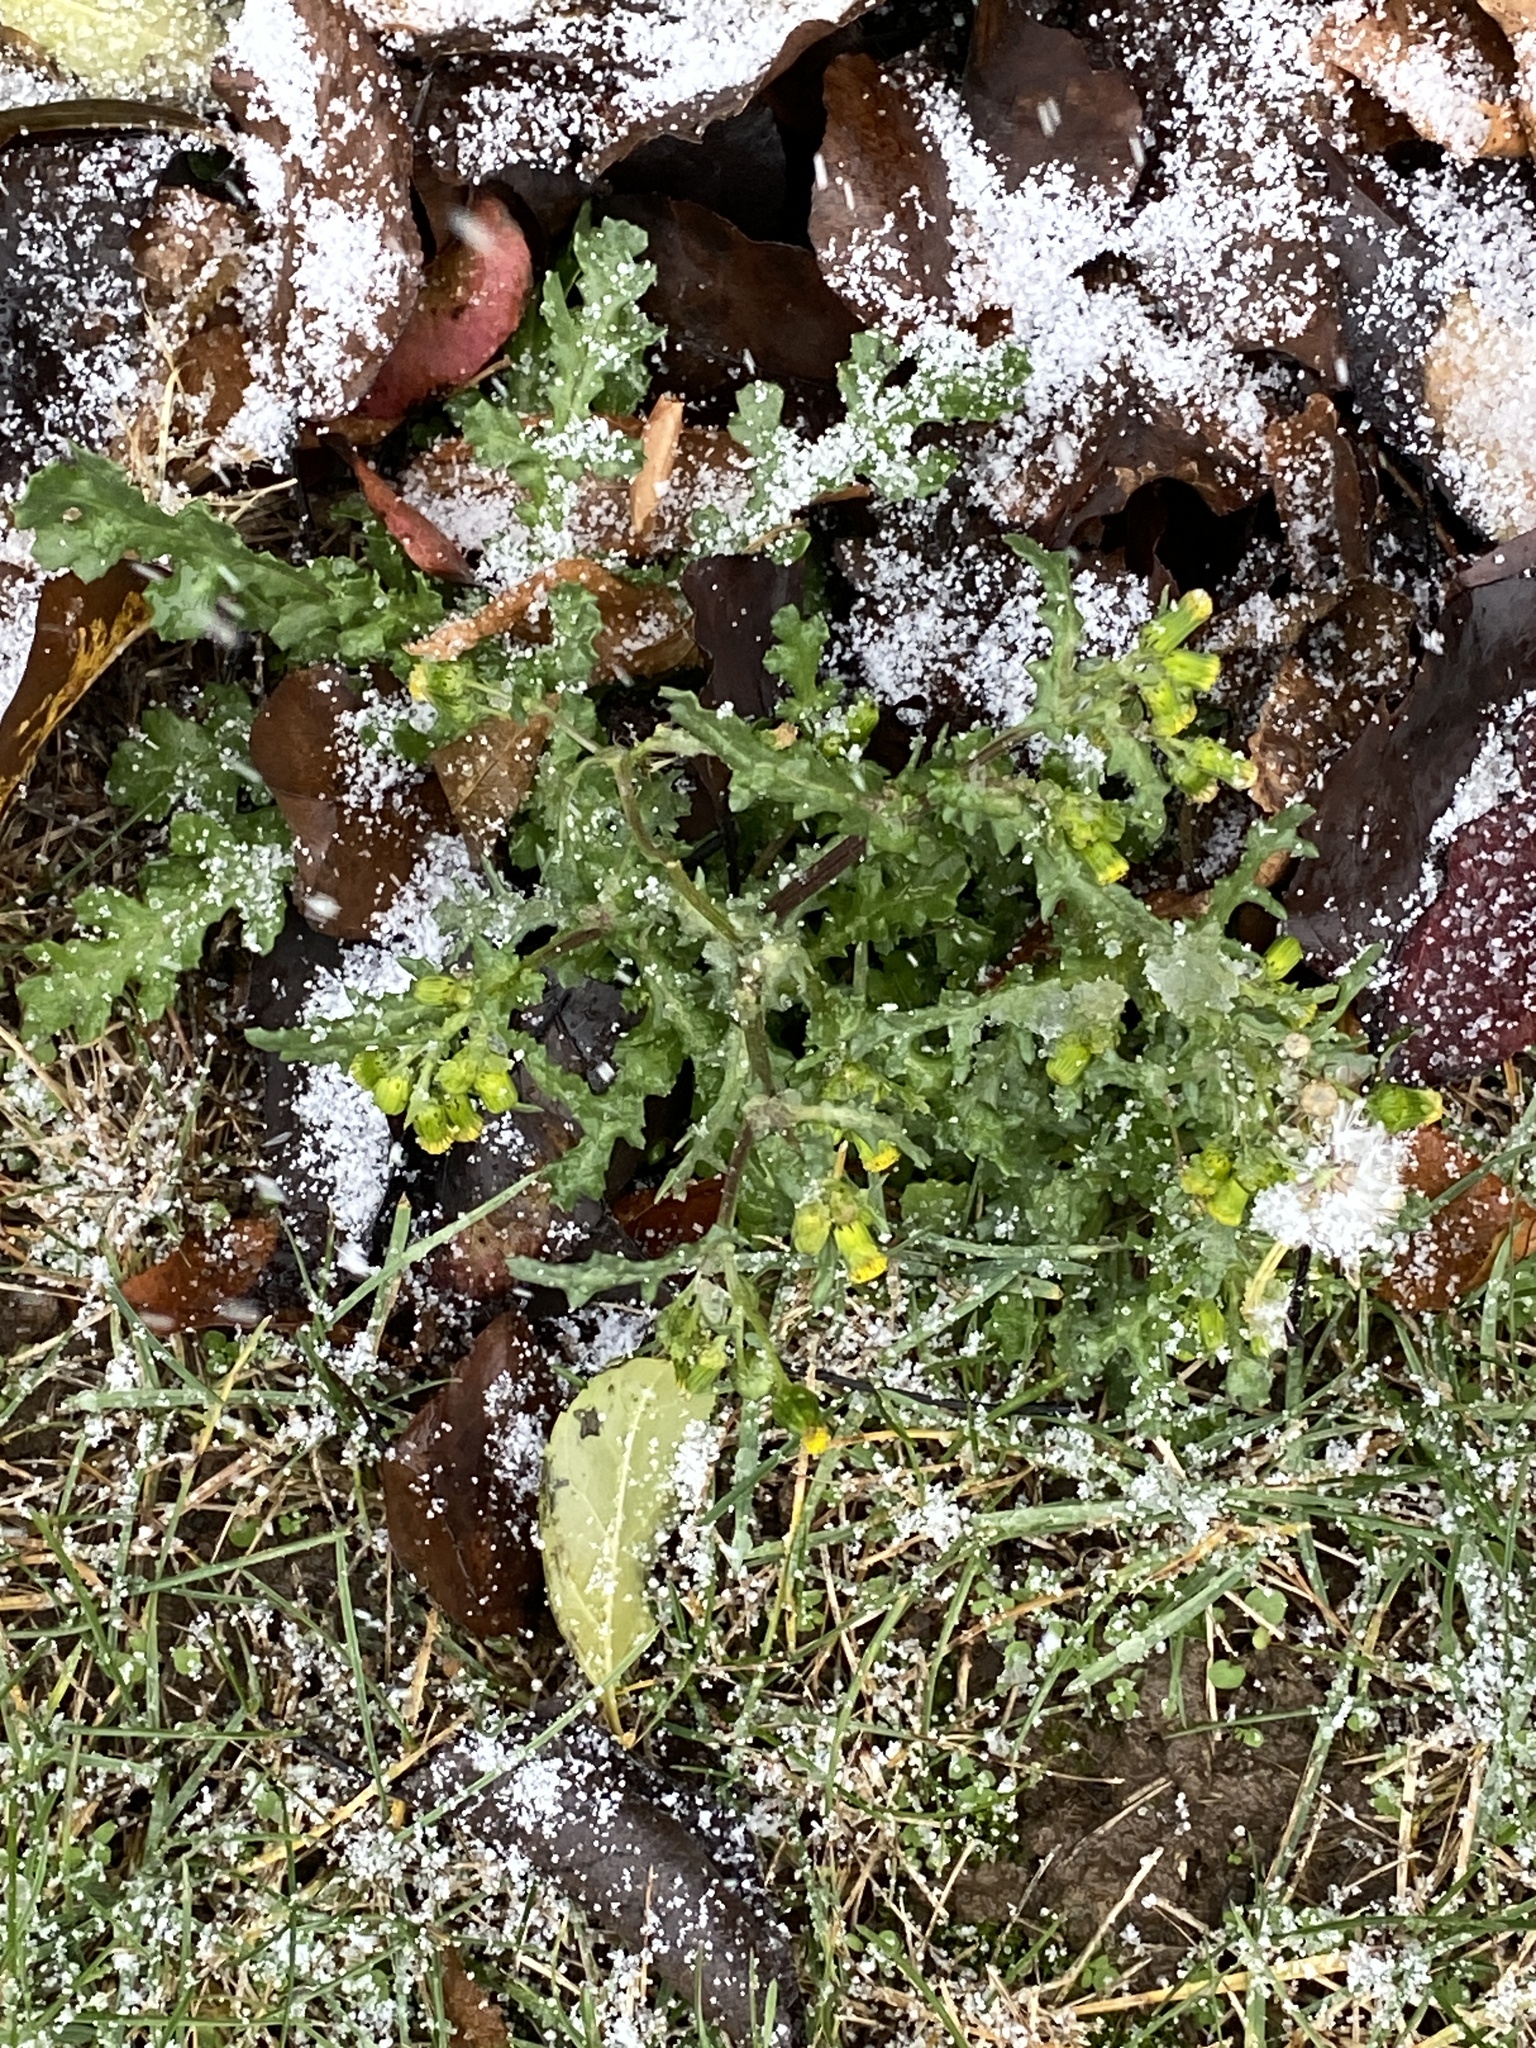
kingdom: Plantae
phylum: Tracheophyta
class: Magnoliopsida
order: Asterales
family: Asteraceae
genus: Senecio
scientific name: Senecio vulgaris
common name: Old-man-in-the-spring
